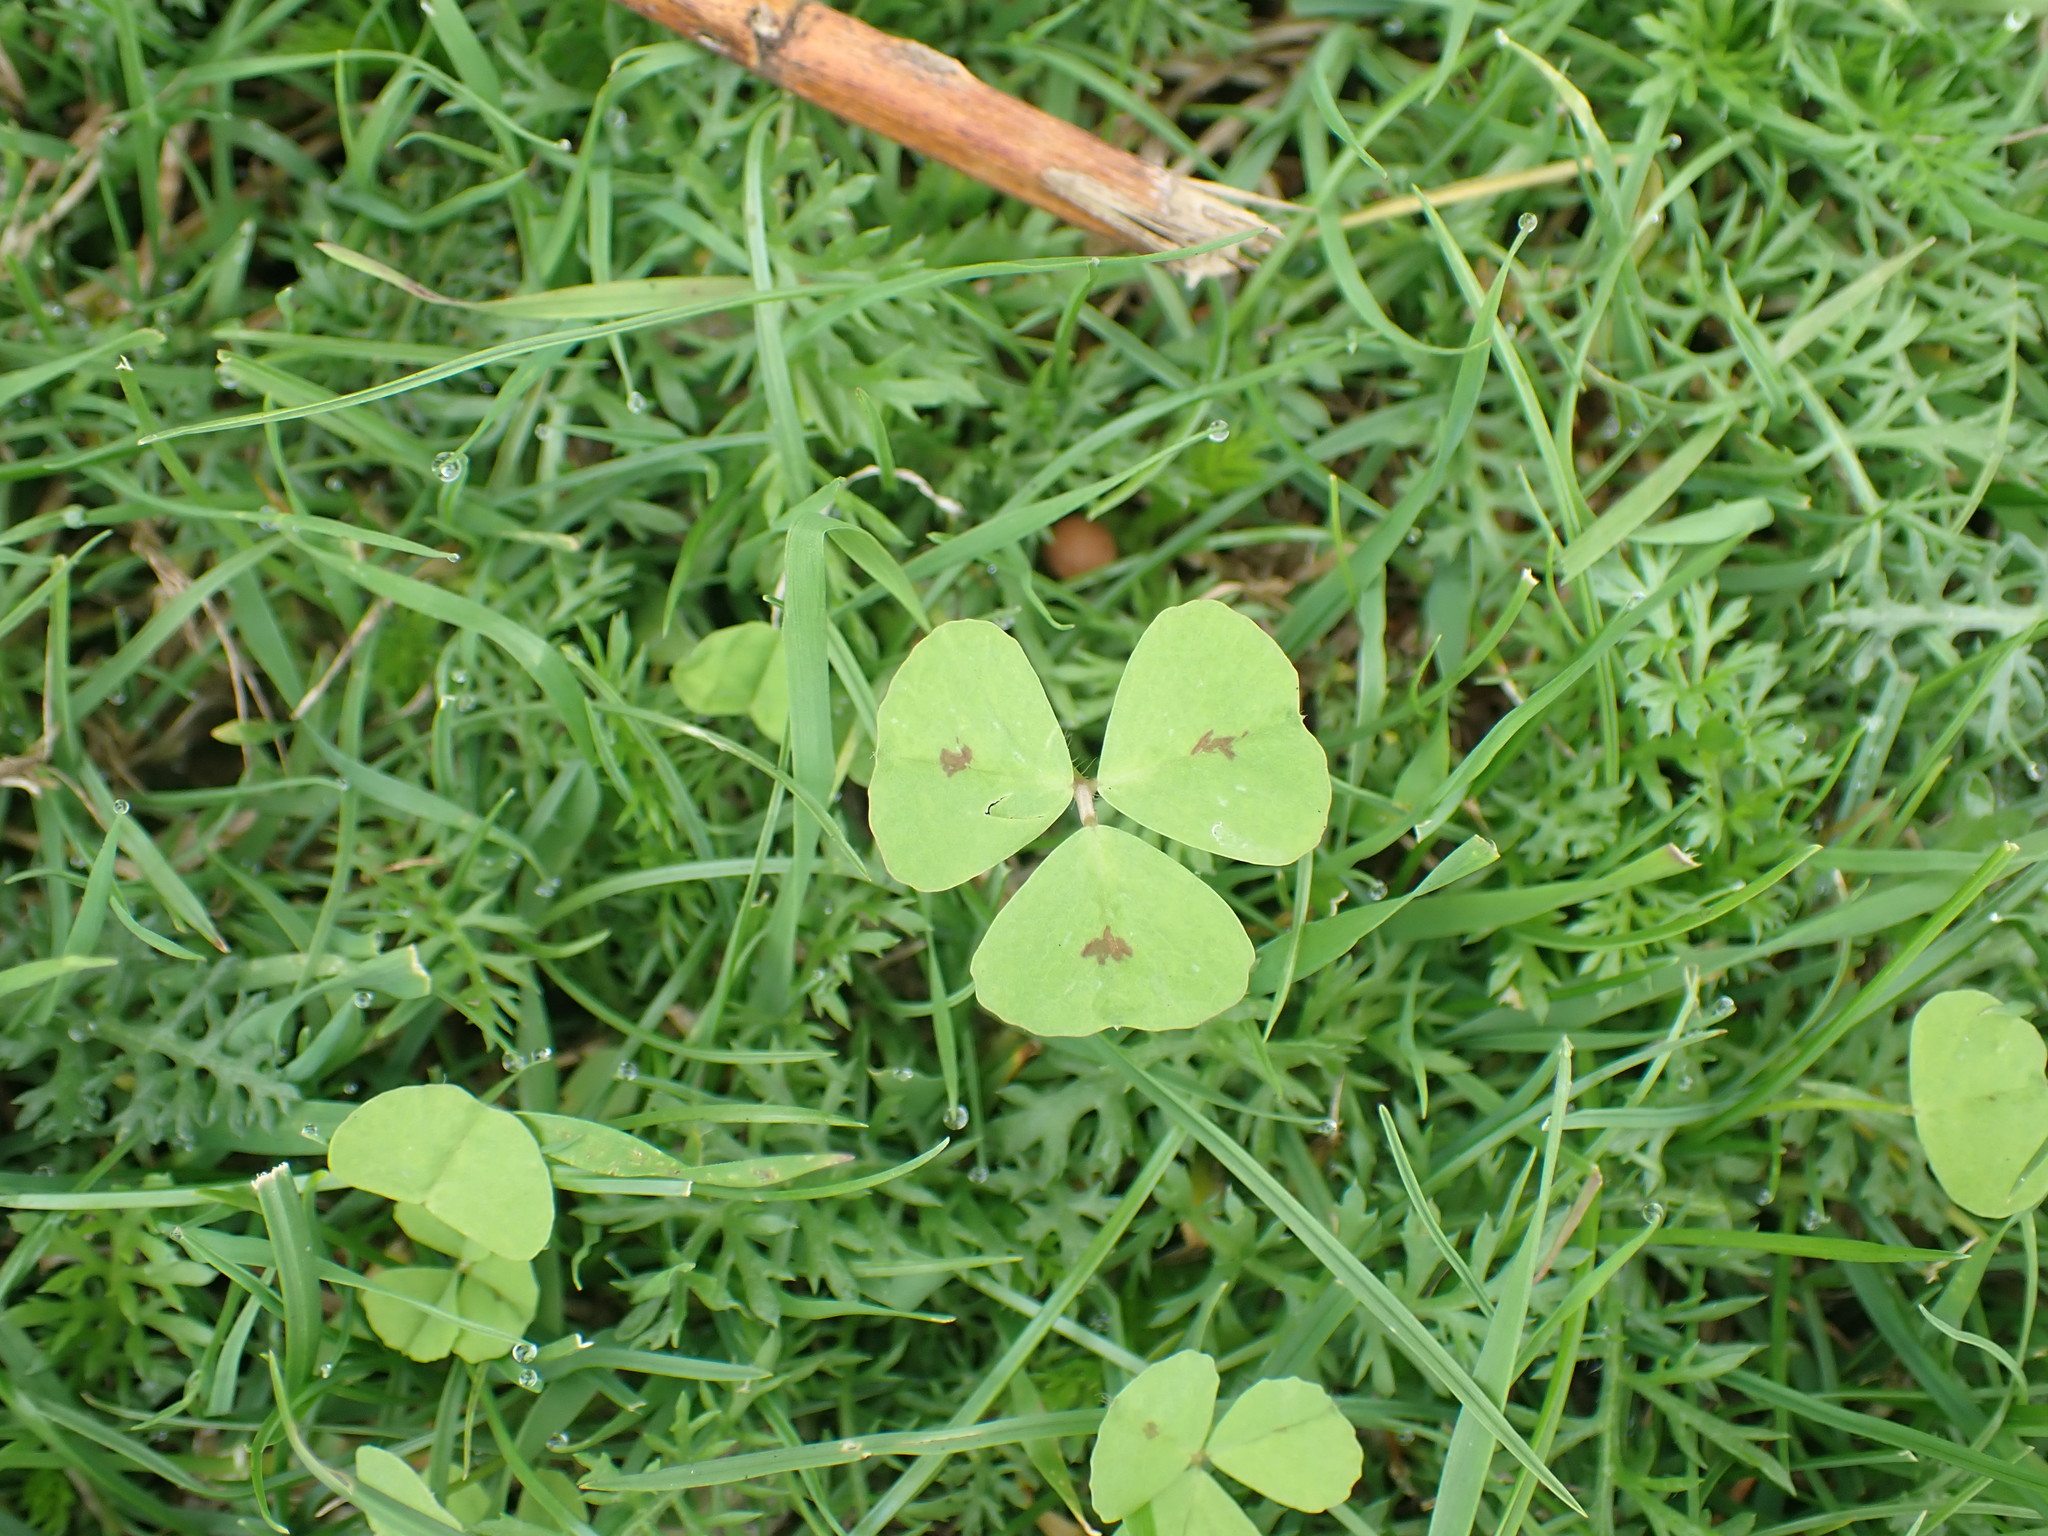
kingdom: Plantae
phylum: Tracheophyta
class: Magnoliopsida
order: Fabales
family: Fabaceae
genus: Medicago
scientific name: Medicago arabica
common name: Spotted medick
